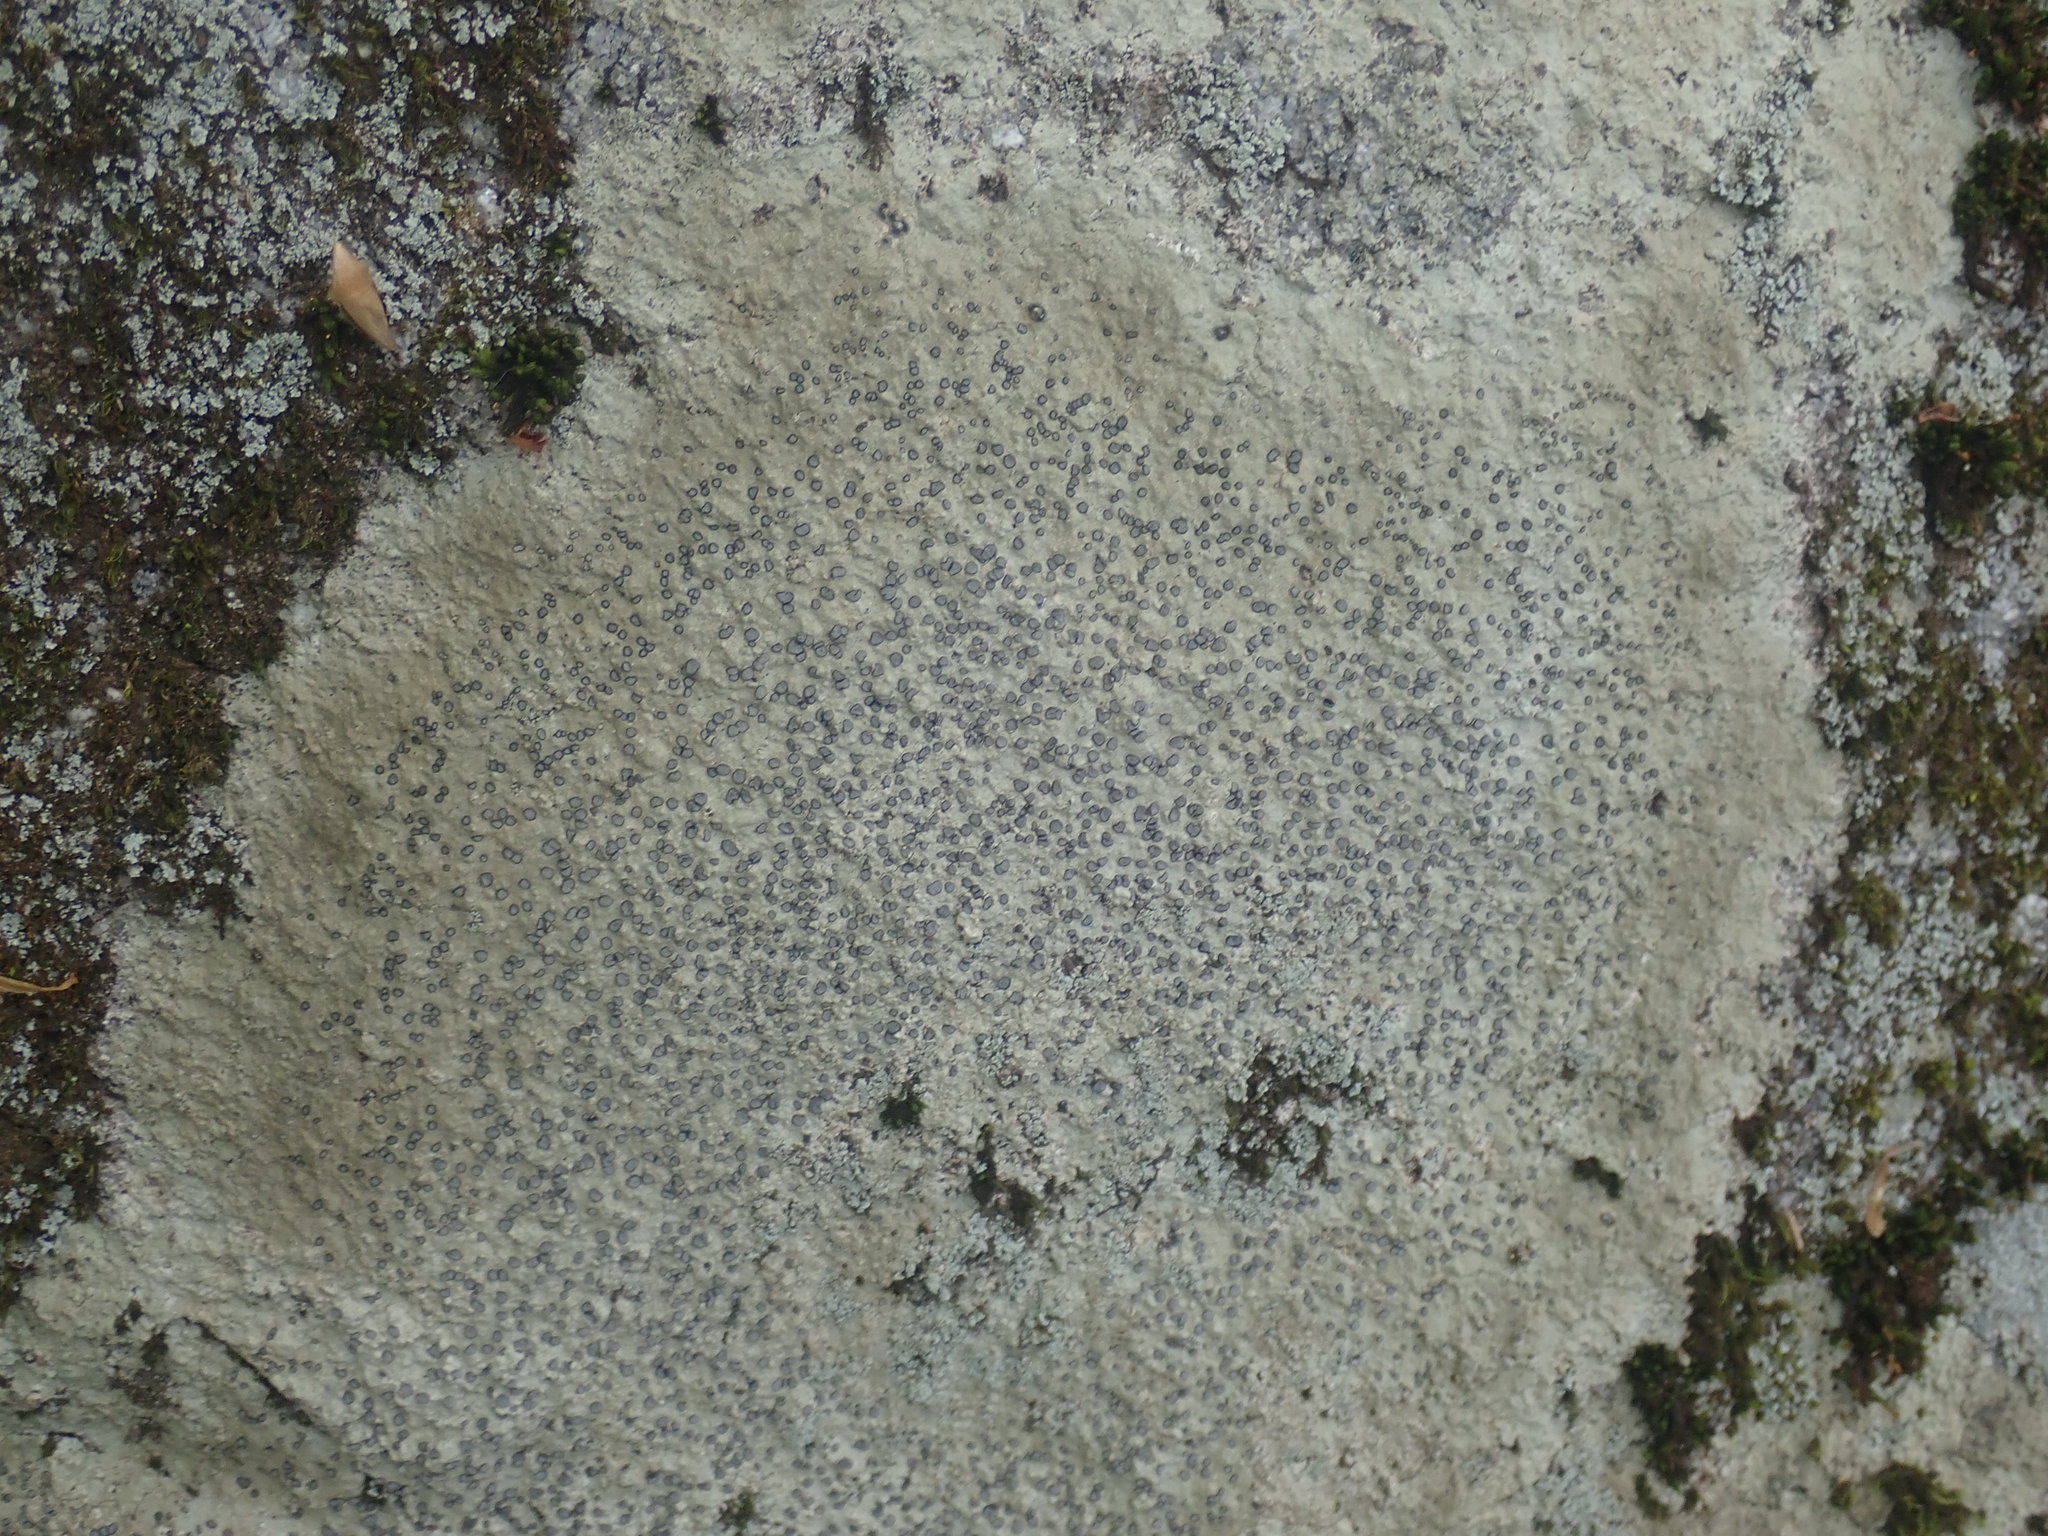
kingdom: Fungi
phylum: Ascomycota
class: Lecanoromycetes
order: Lecideales
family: Lecideaceae
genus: Porpidia
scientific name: Porpidia albocaerulescens
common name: Smokey-eyed boulder lichen
